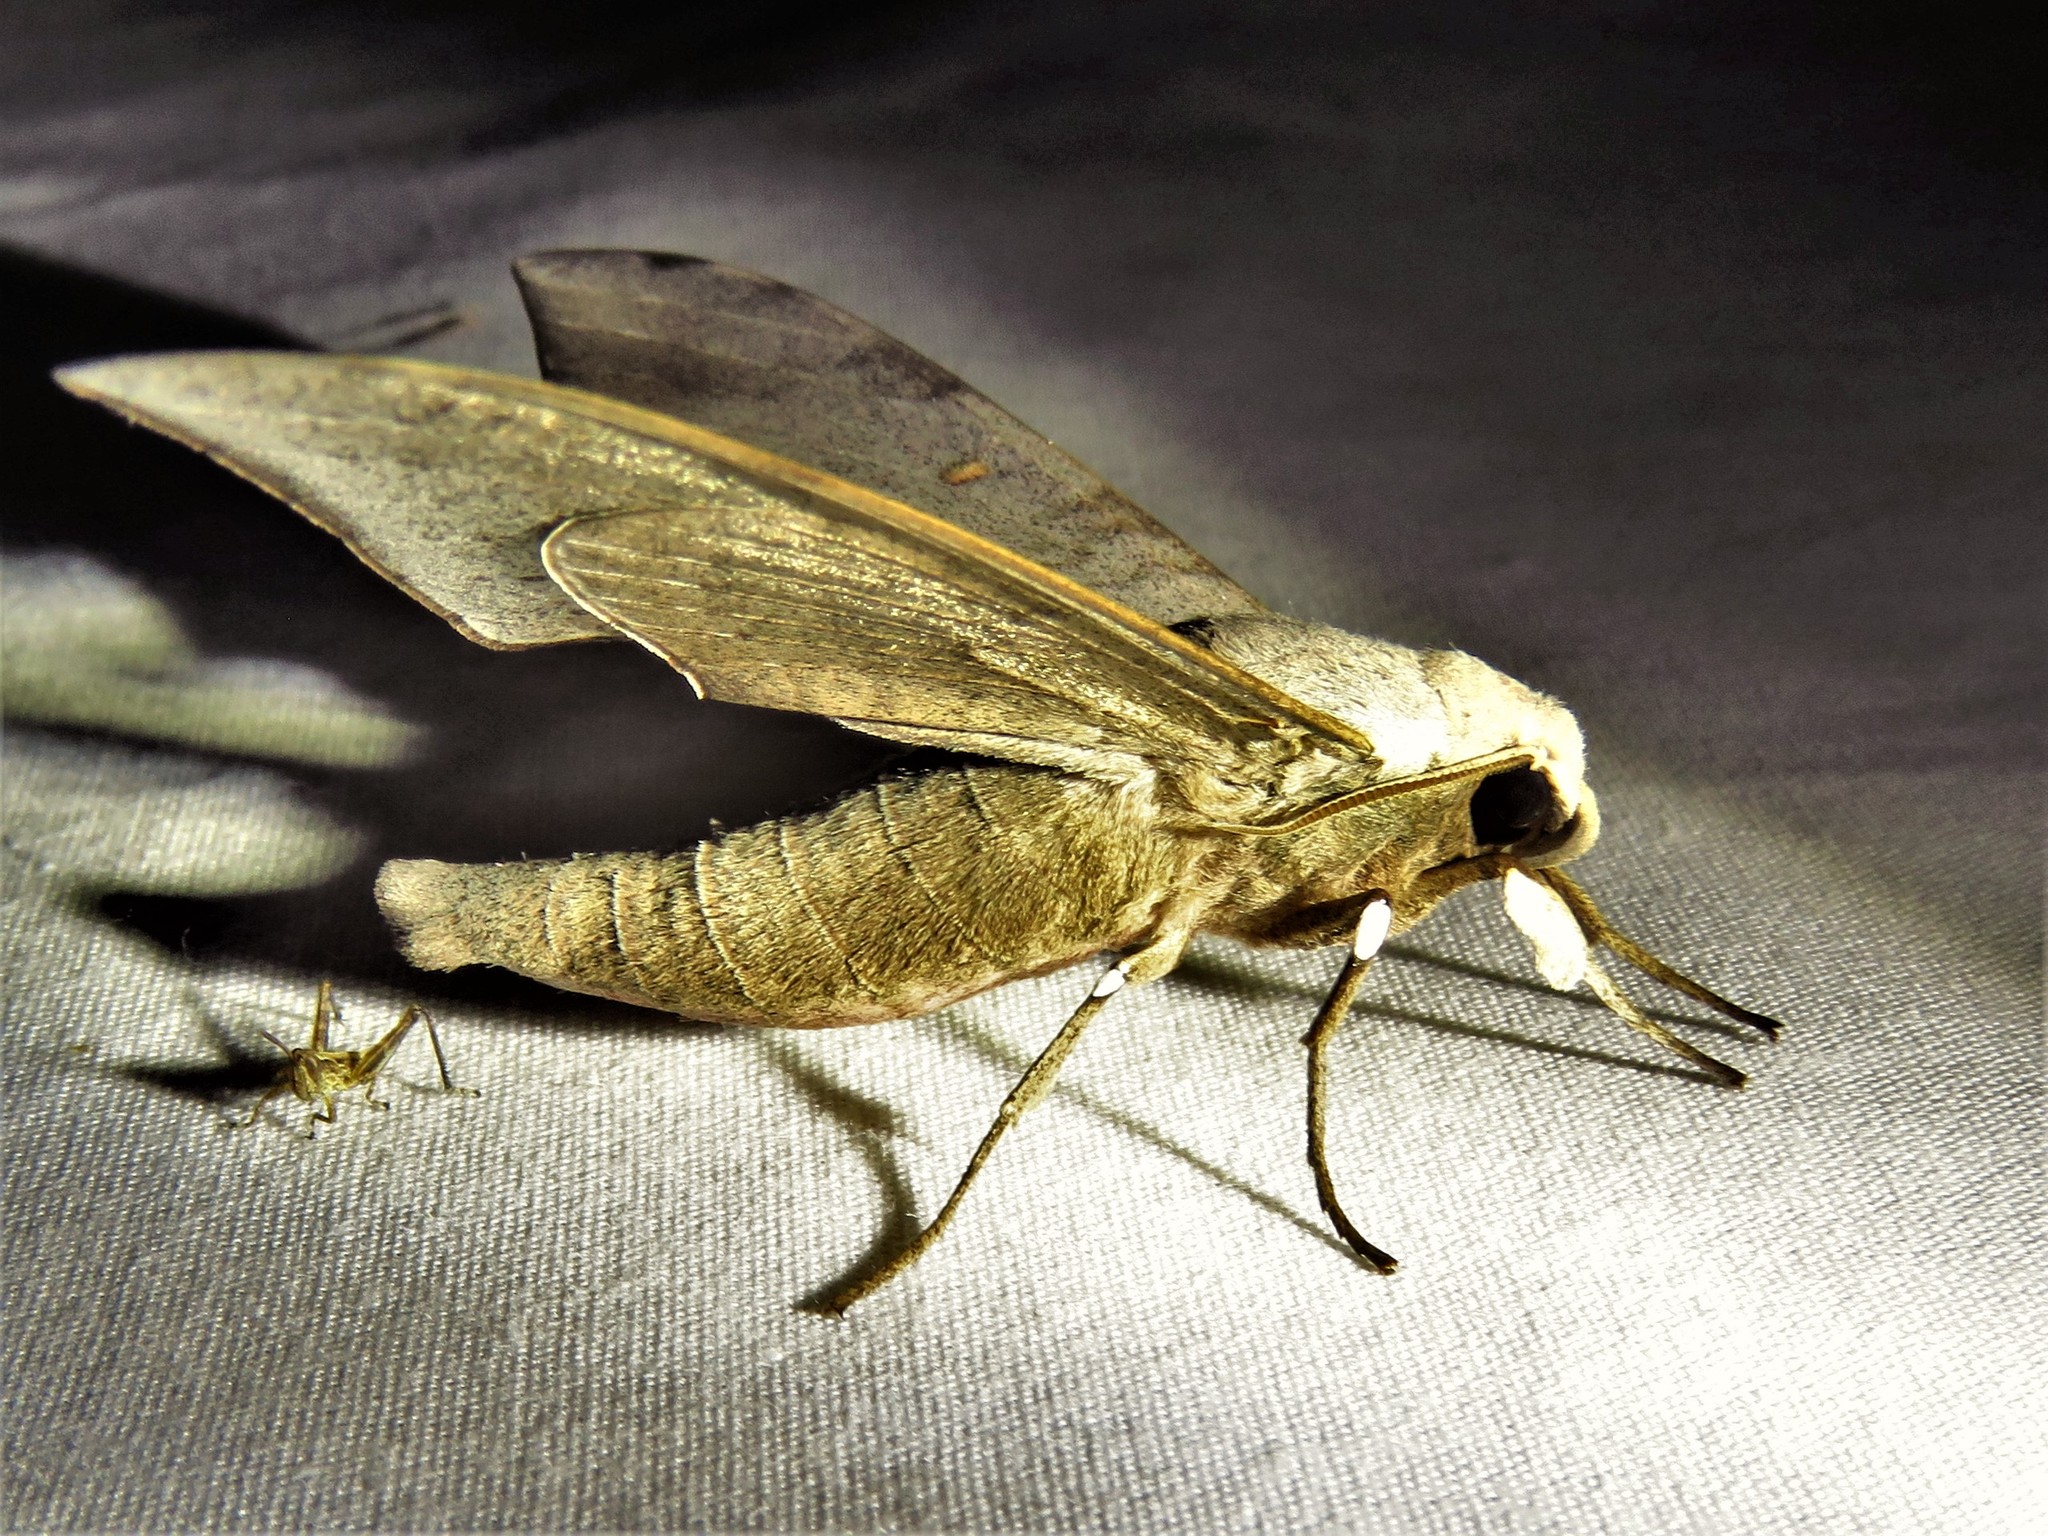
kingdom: Animalia
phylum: Arthropoda
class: Insecta
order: Lepidoptera
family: Sphingidae
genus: Polyptychus
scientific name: Polyptychus retusus
